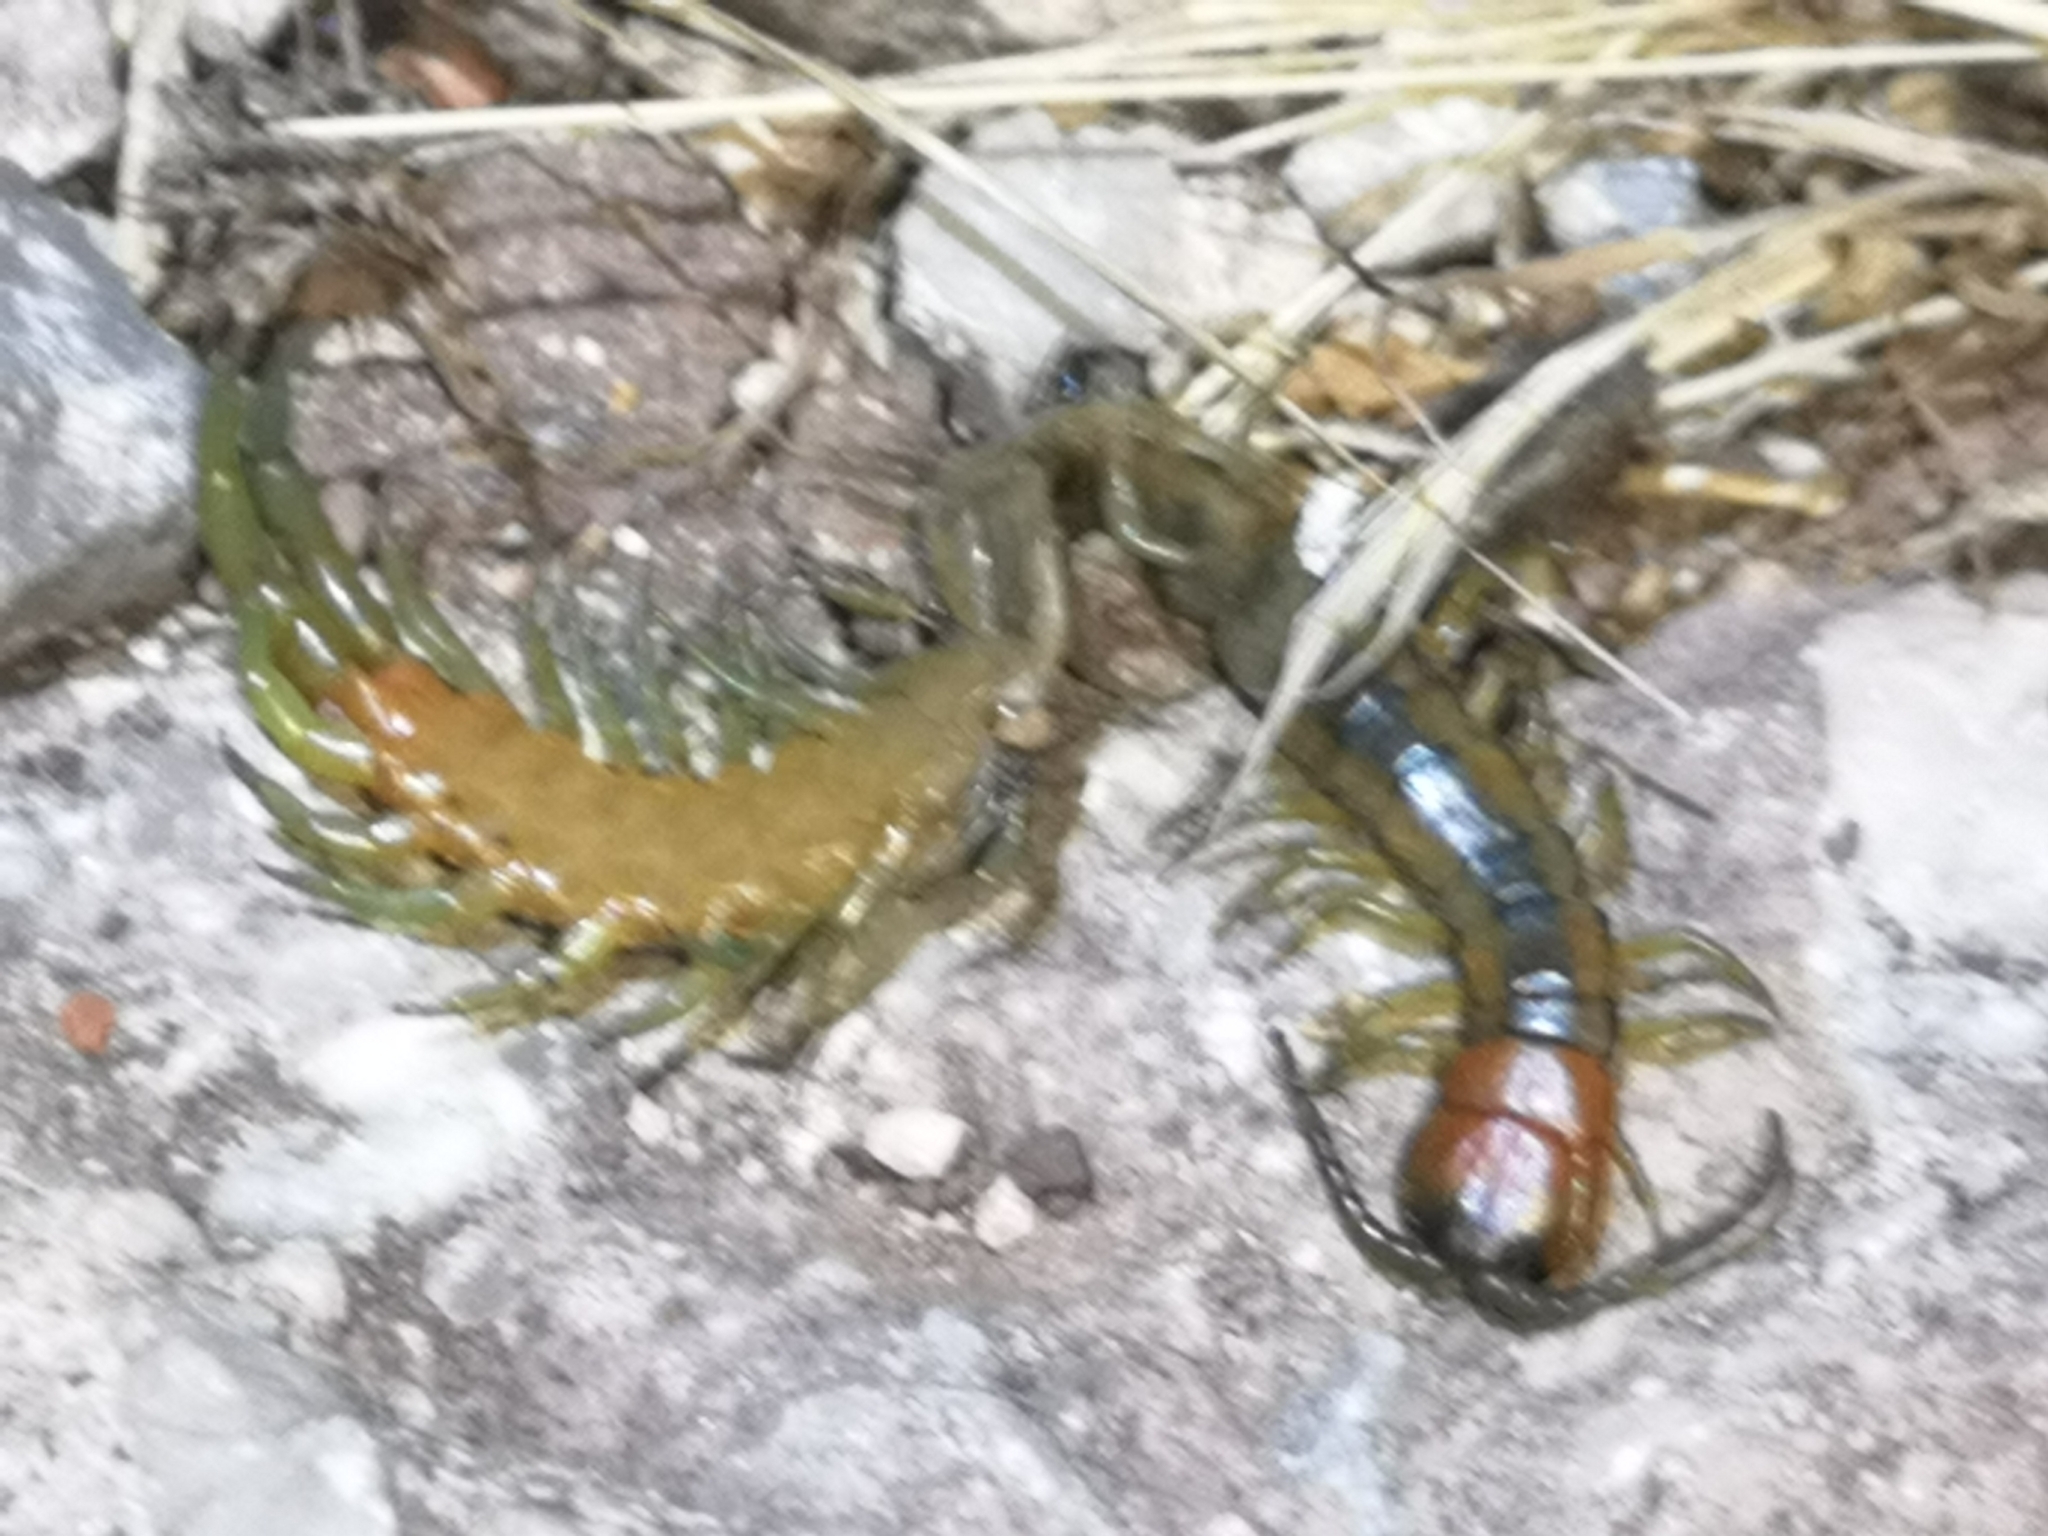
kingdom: Animalia
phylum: Arthropoda
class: Chilopoda
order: Scolopendromorpha
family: Scolopendridae
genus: Scolopendra
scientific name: Scolopendra cingulata
